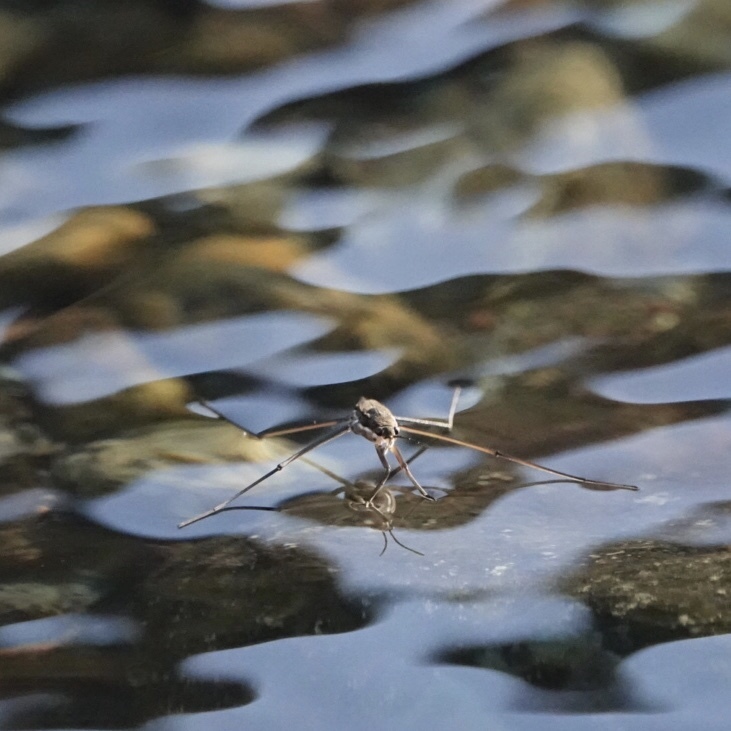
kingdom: Animalia
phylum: Arthropoda
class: Insecta
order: Hemiptera
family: Gerridae
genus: Aquarius
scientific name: Aquarius remigis
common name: Common water strider
